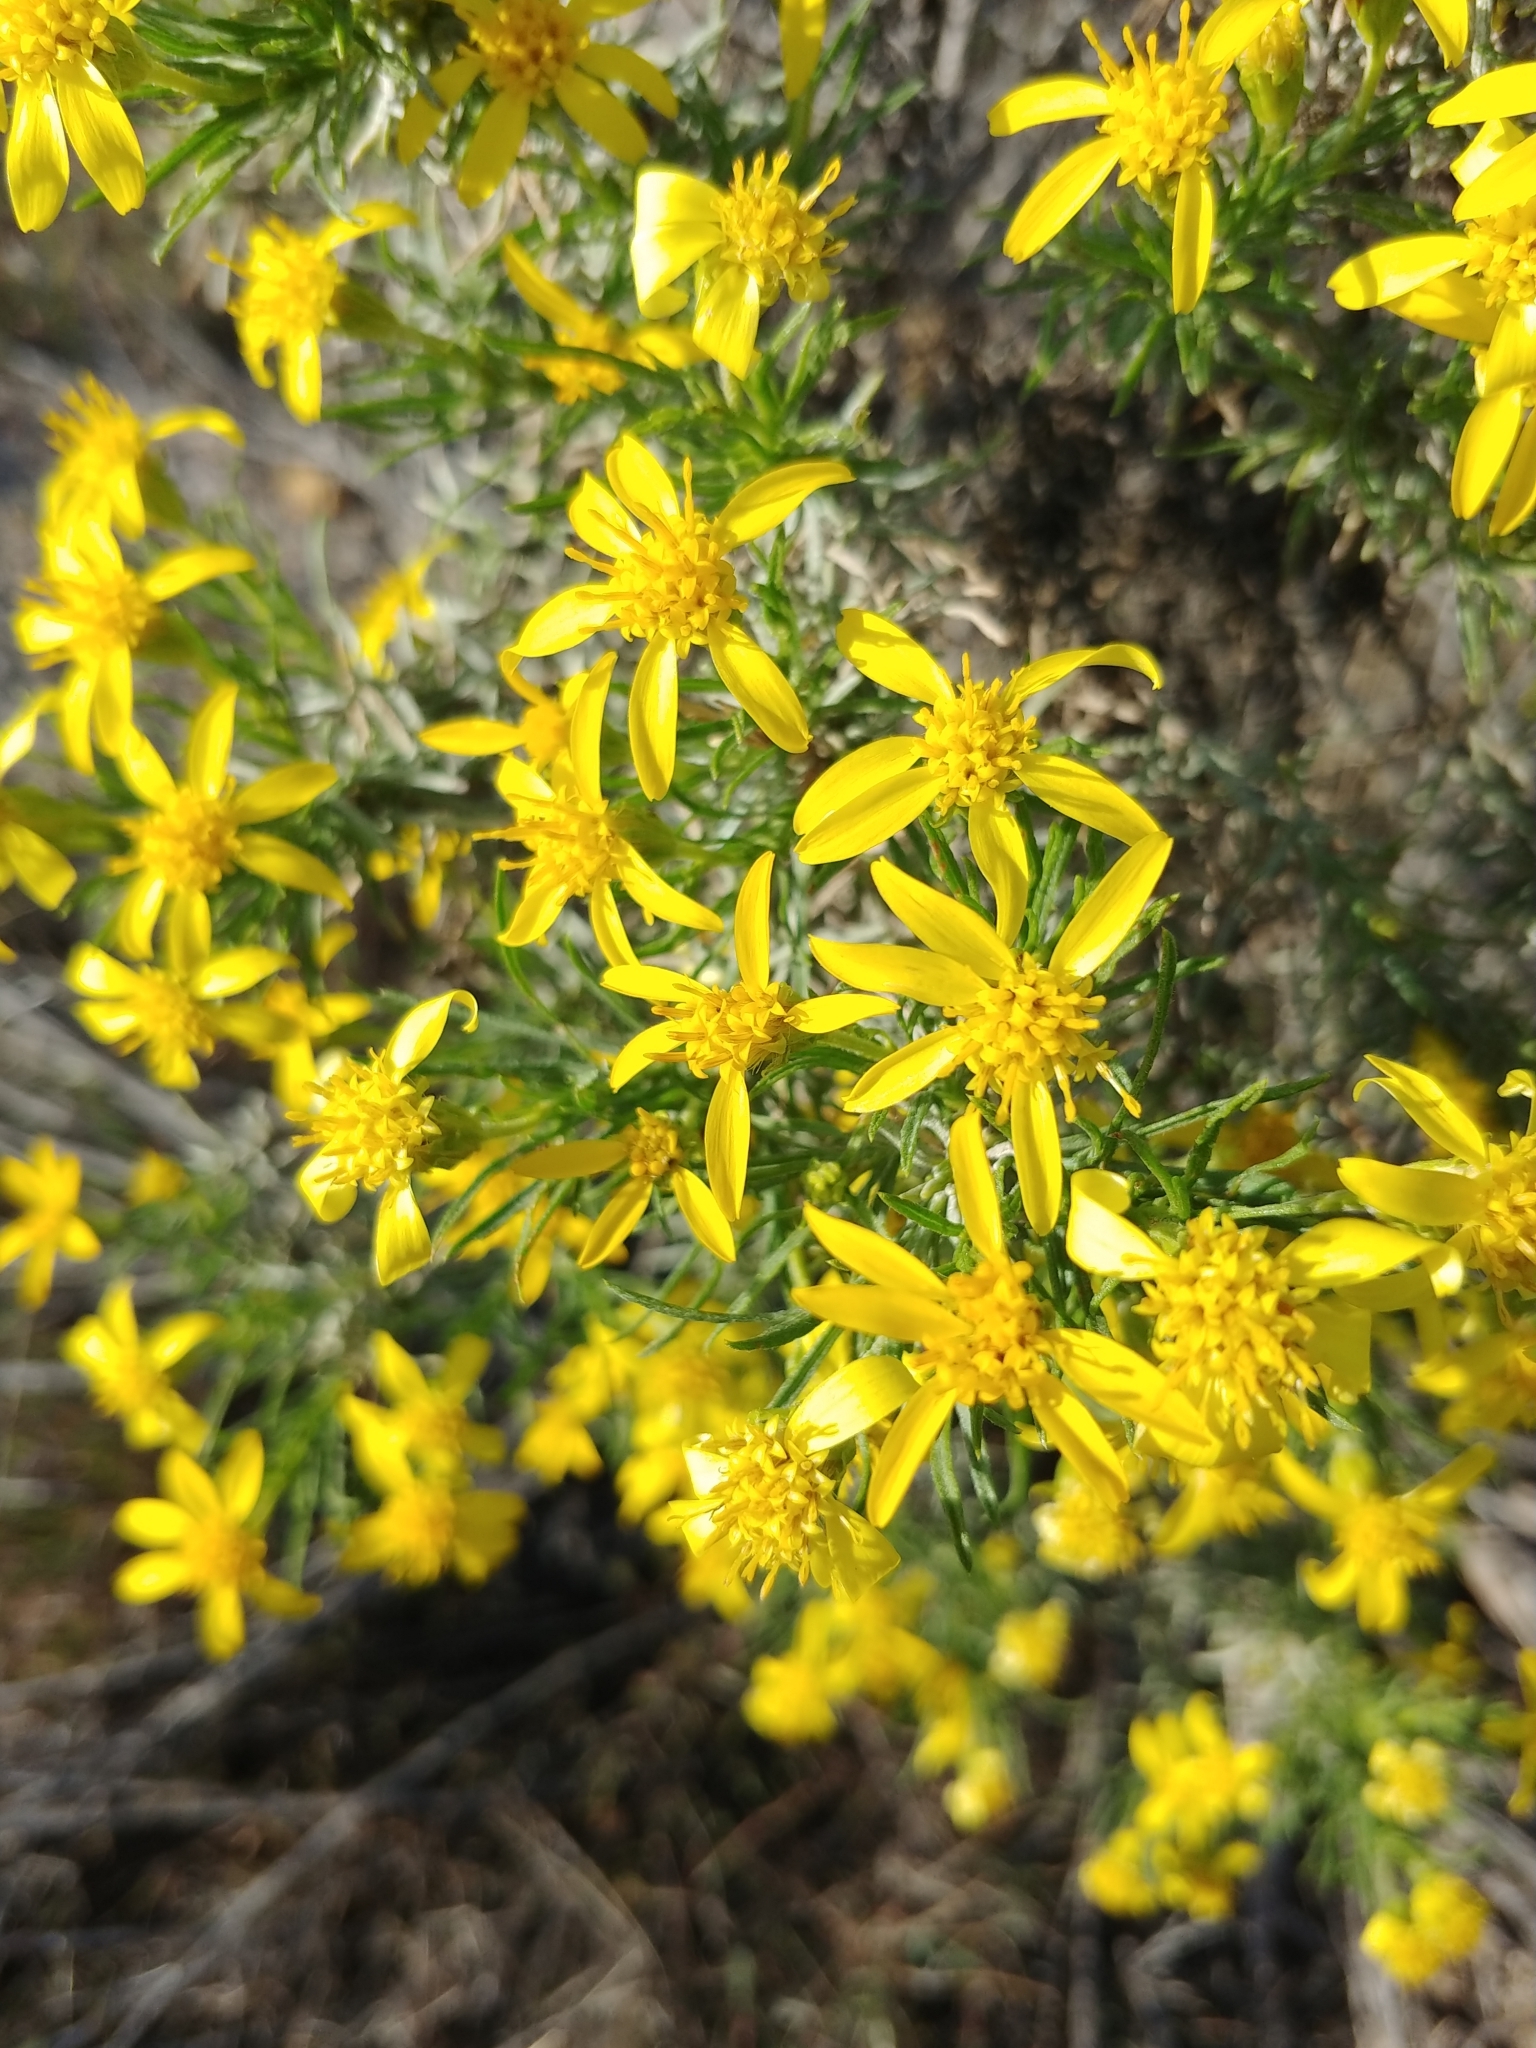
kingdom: Plantae
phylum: Tracheophyta
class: Magnoliopsida
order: Asterales
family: Asteraceae
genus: Ericameria
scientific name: Ericameria linearifolia
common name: Interior goldenbush
